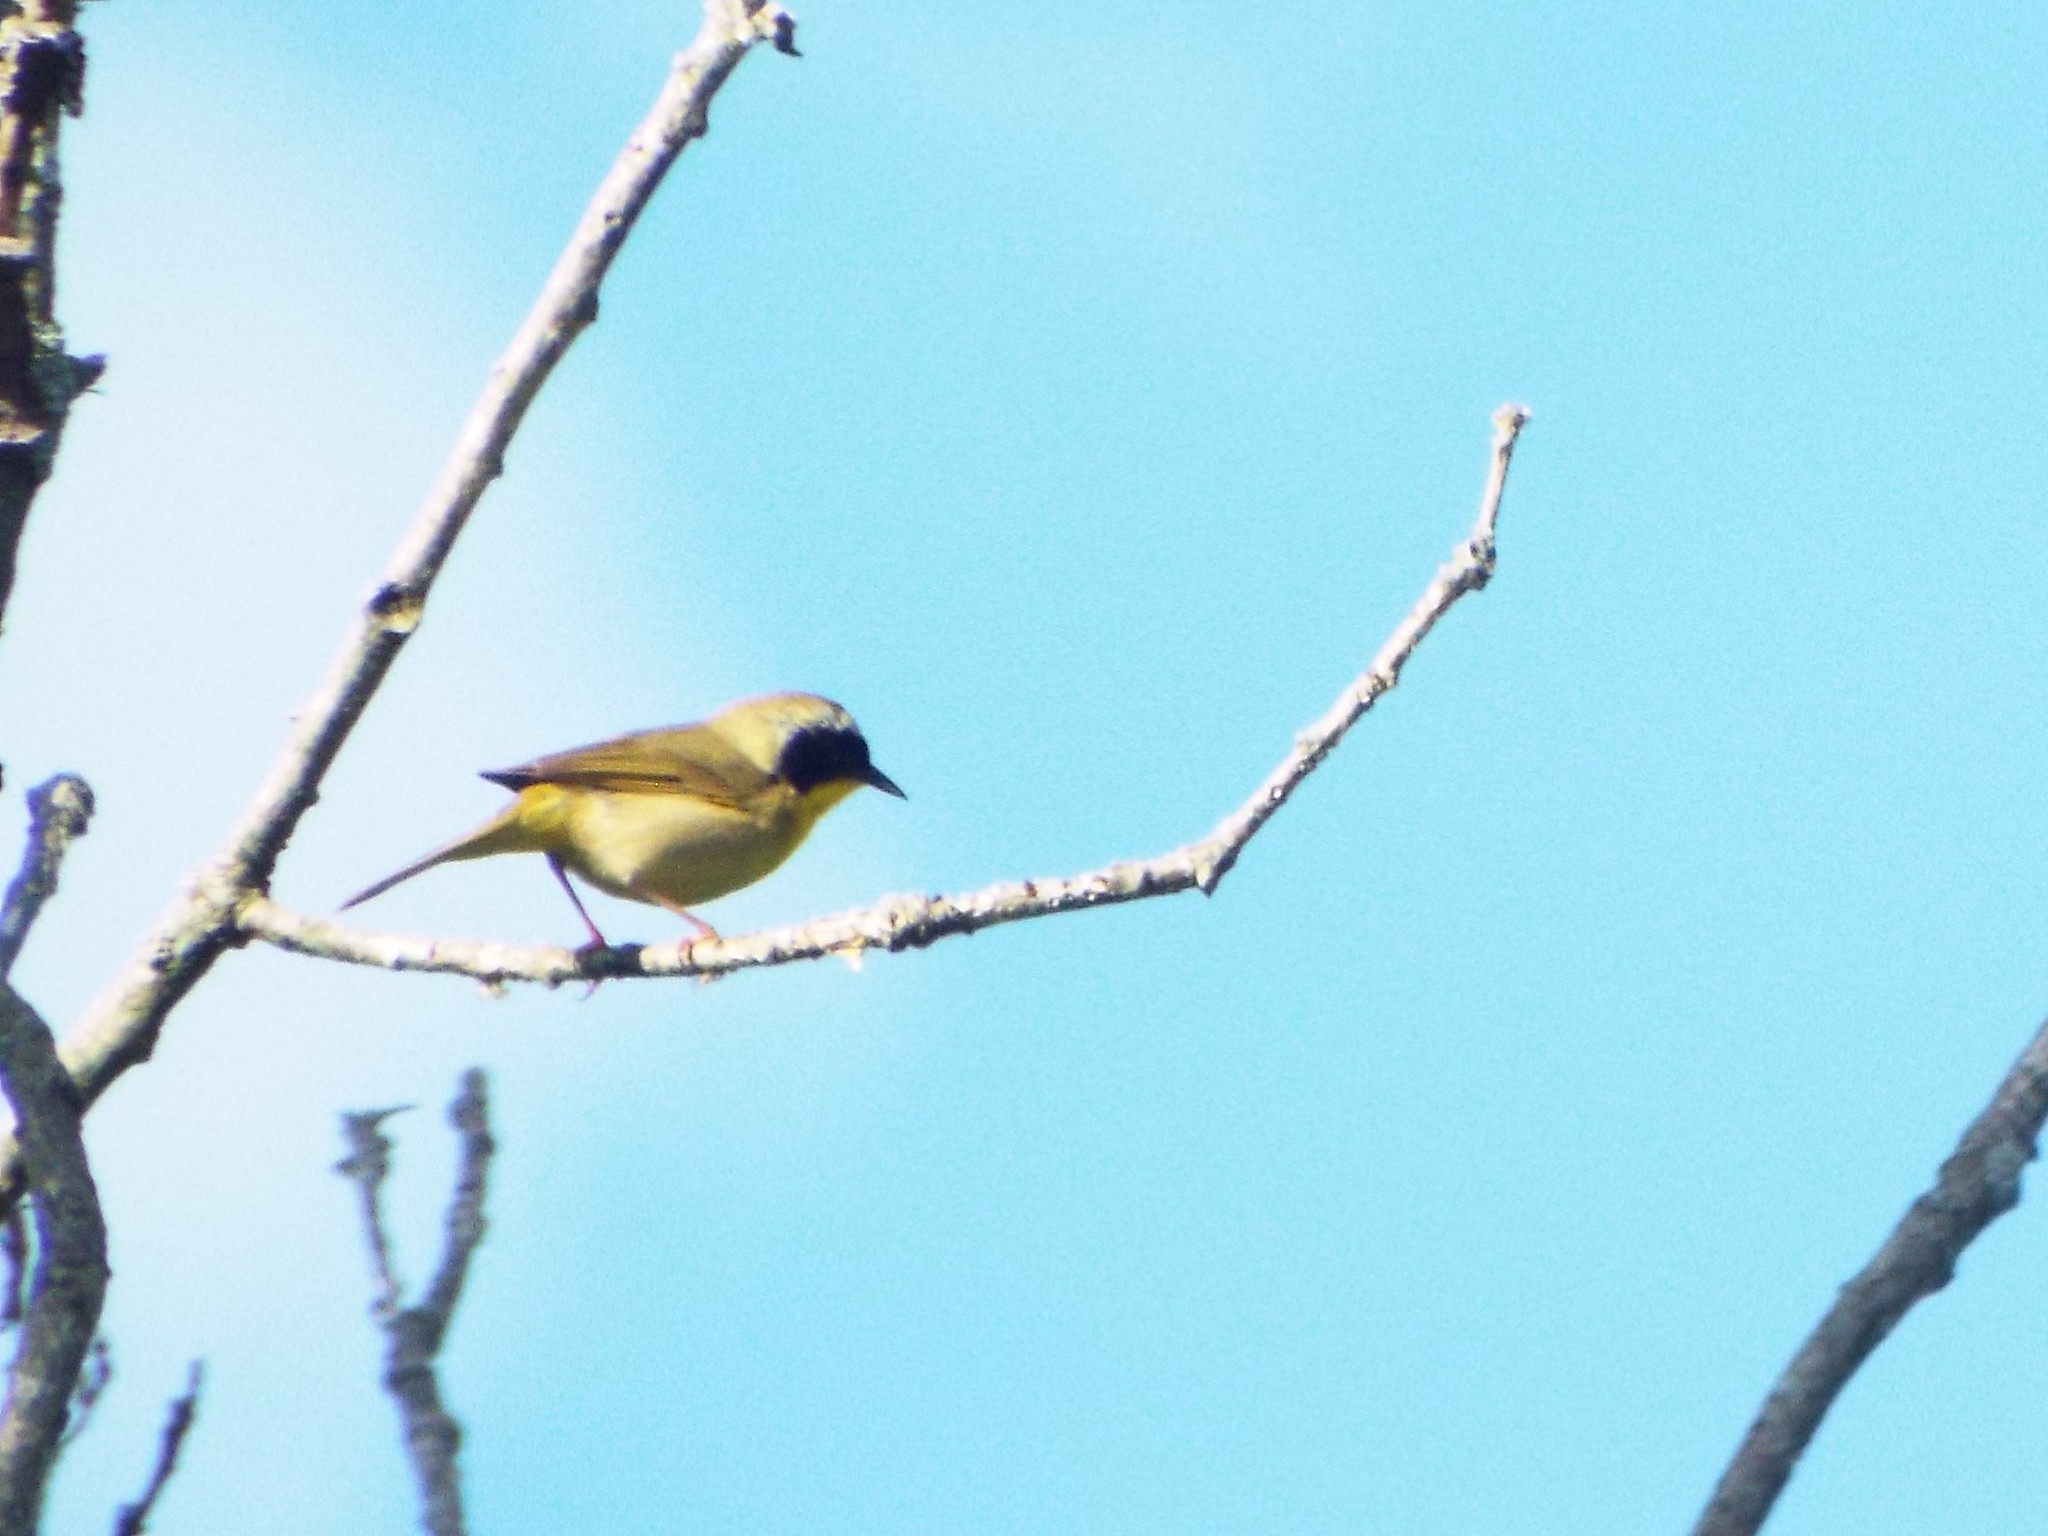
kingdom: Animalia
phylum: Chordata
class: Aves
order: Passeriformes
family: Parulidae
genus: Geothlypis
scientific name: Geothlypis trichas
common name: Common yellowthroat
